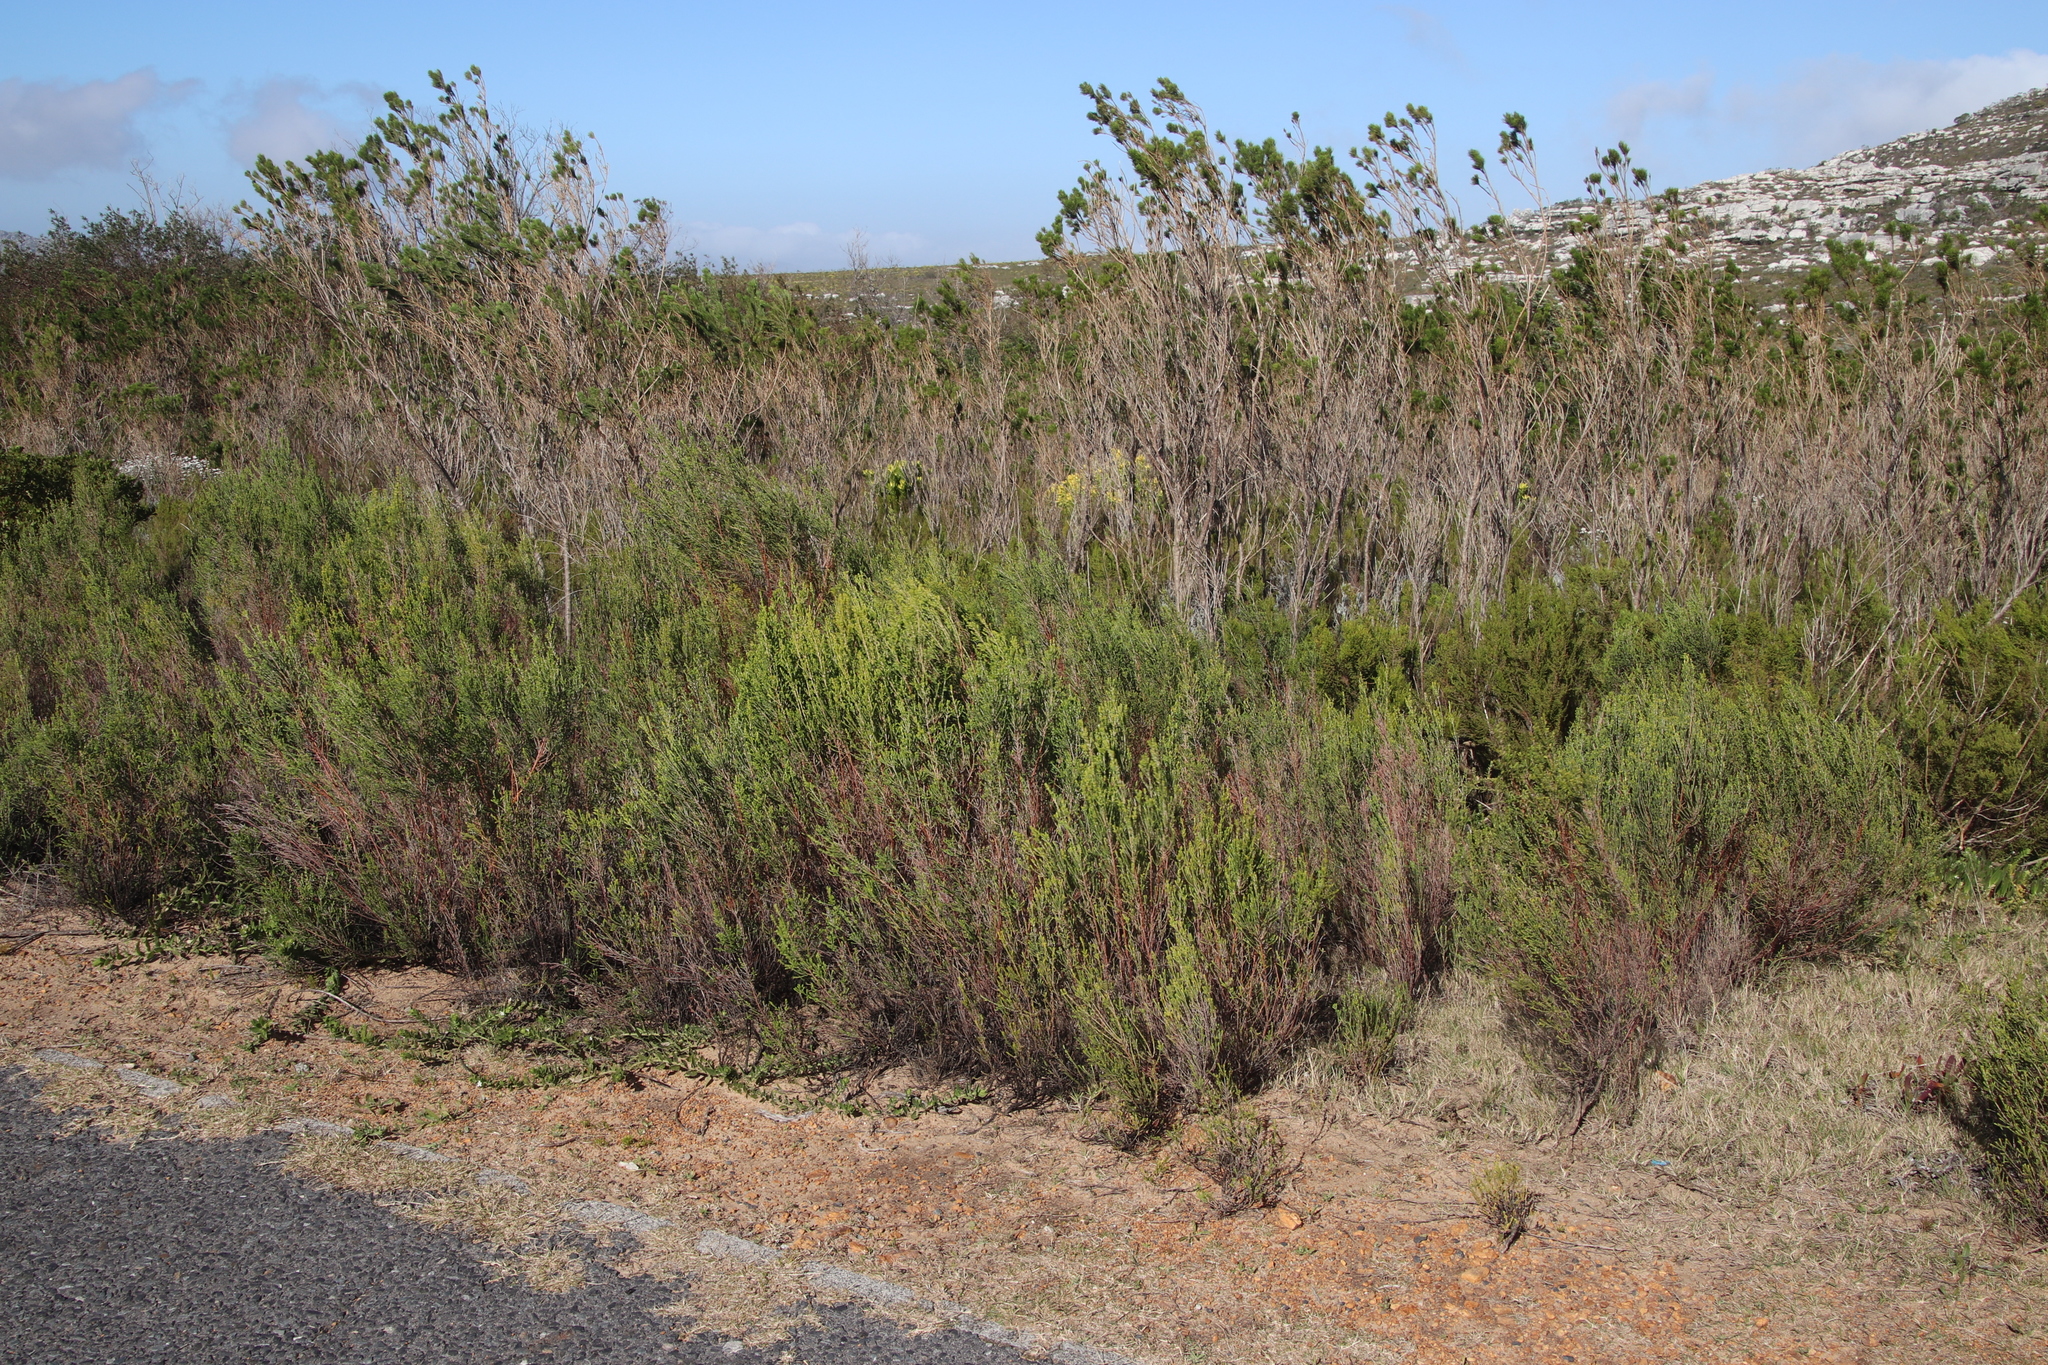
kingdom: Plantae
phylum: Tracheophyta
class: Magnoliopsida
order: Malvales
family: Thymelaeaceae
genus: Passerina
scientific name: Passerina corymbosa
